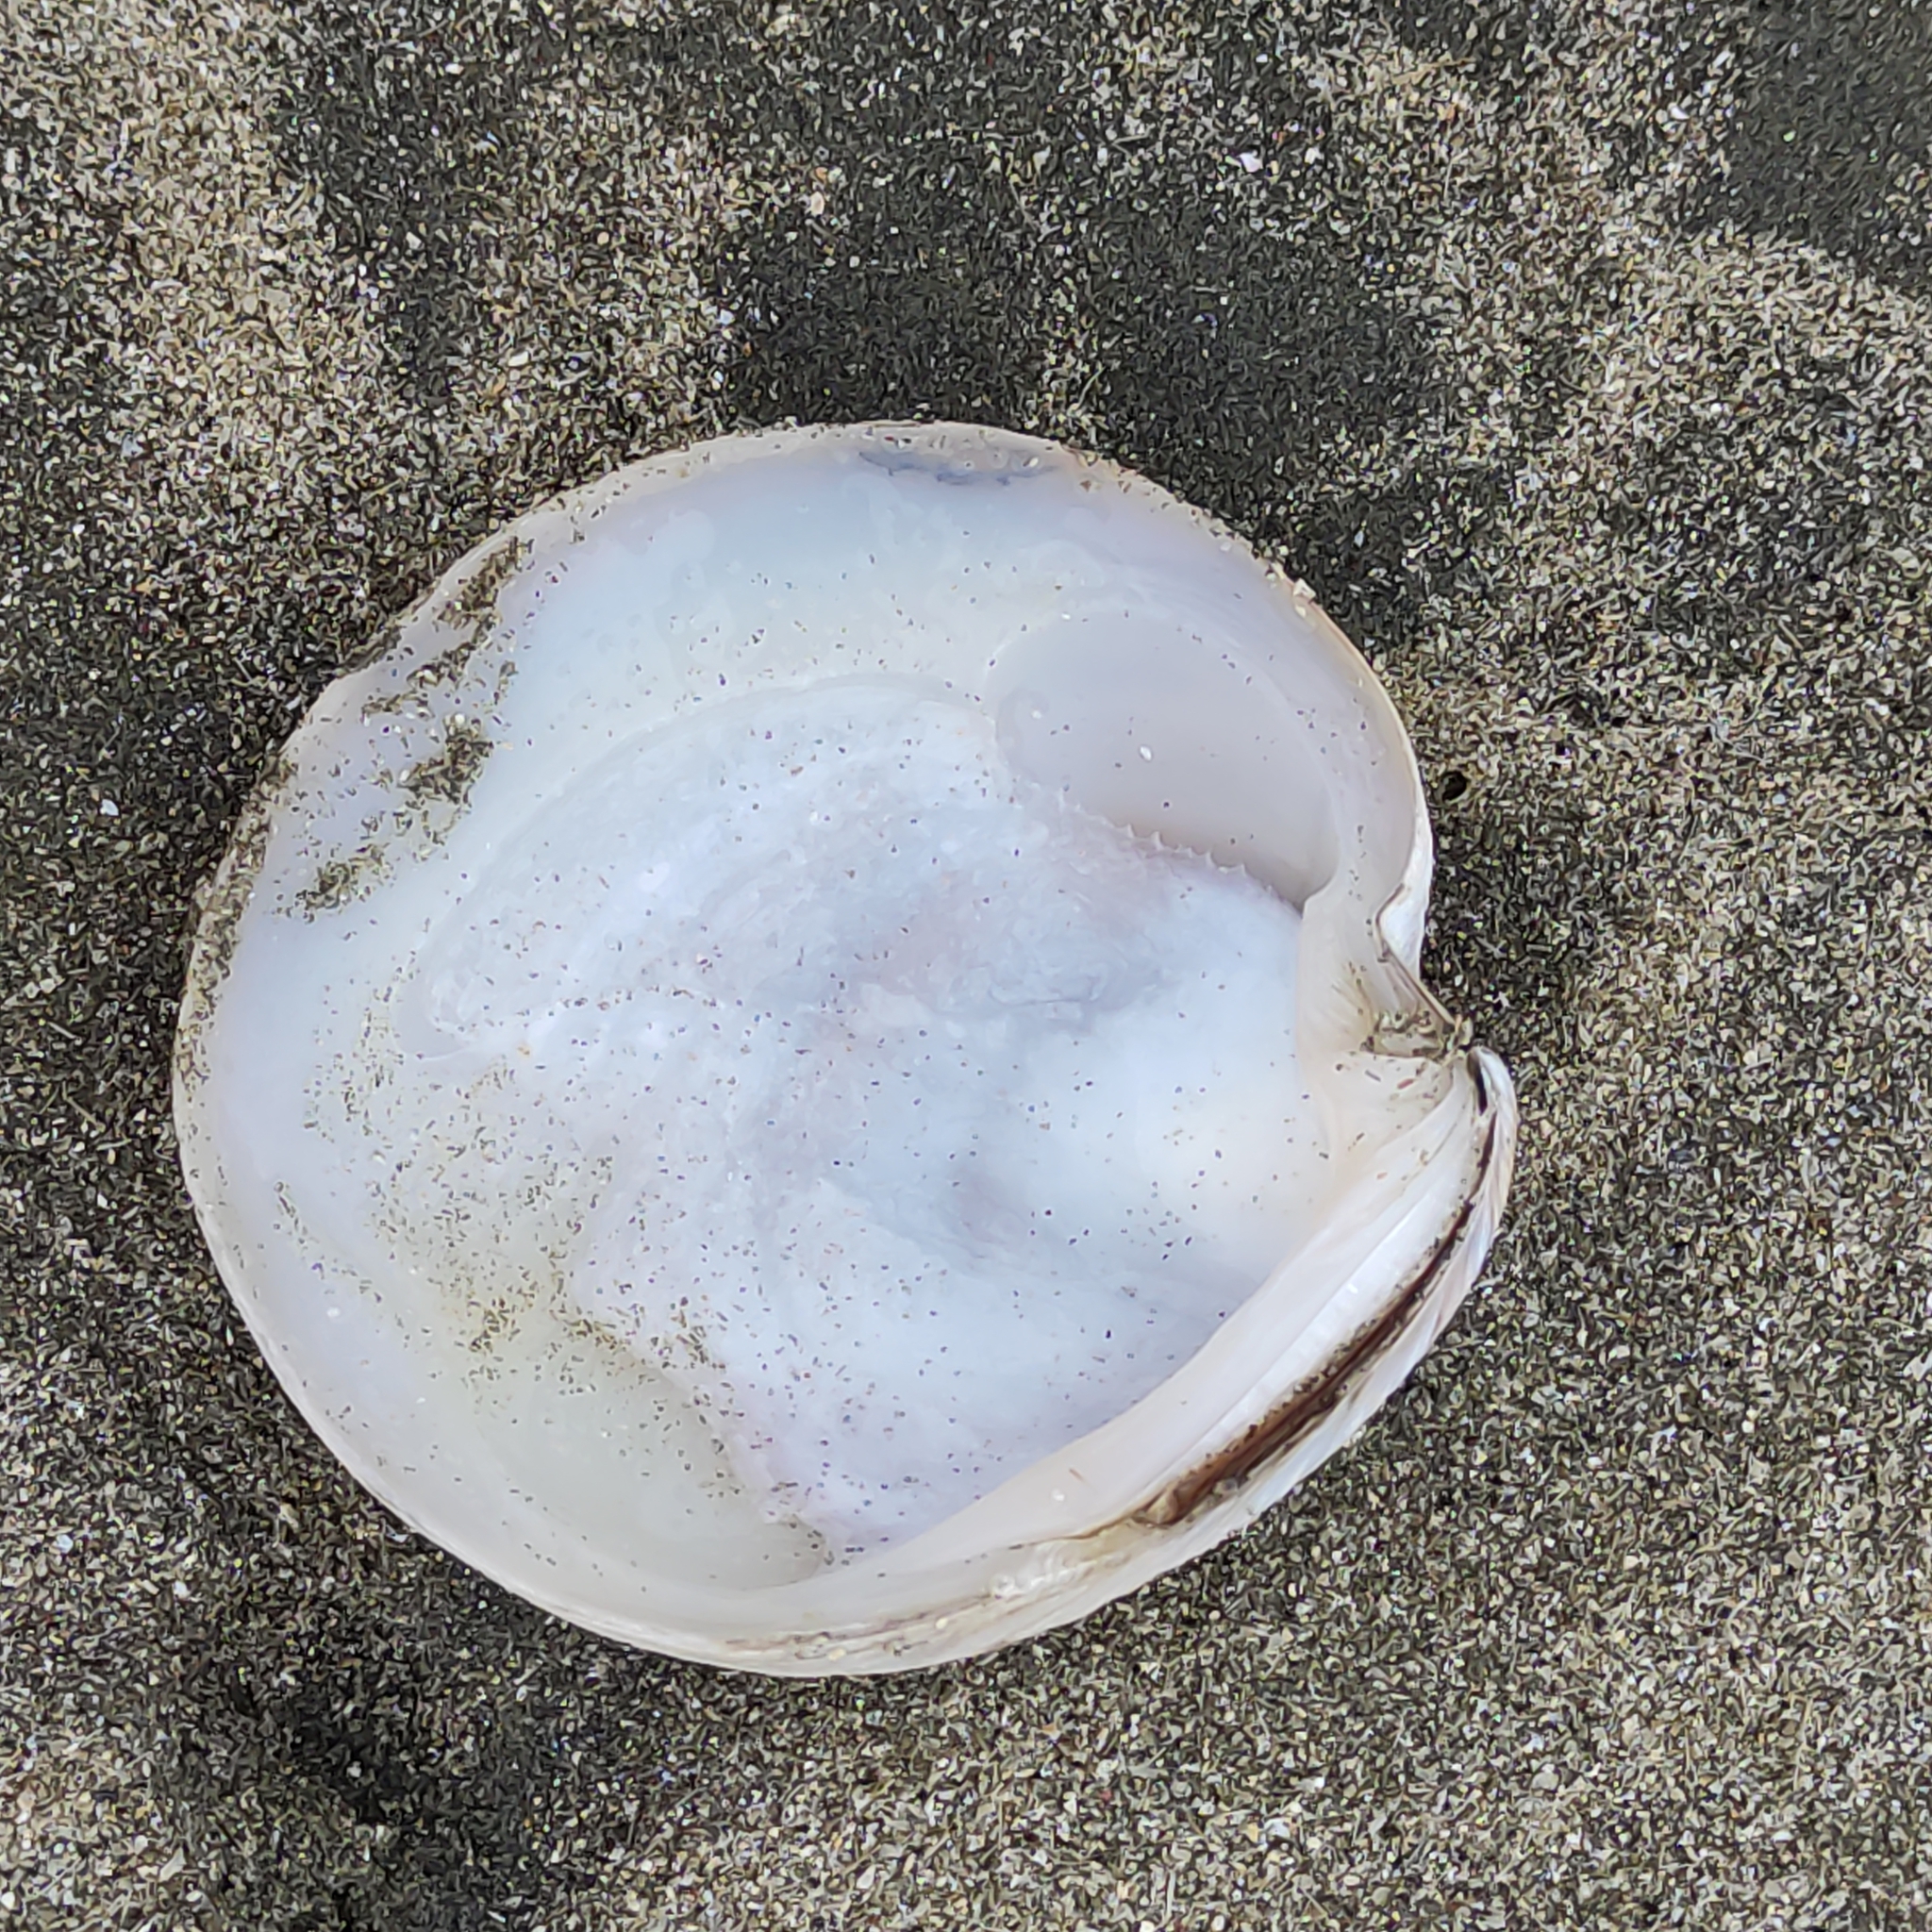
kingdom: Animalia
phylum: Mollusca
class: Bivalvia
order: Venerida
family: Veneridae
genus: Dosinia
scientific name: Dosinia anus
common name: Old-woman dosinia
